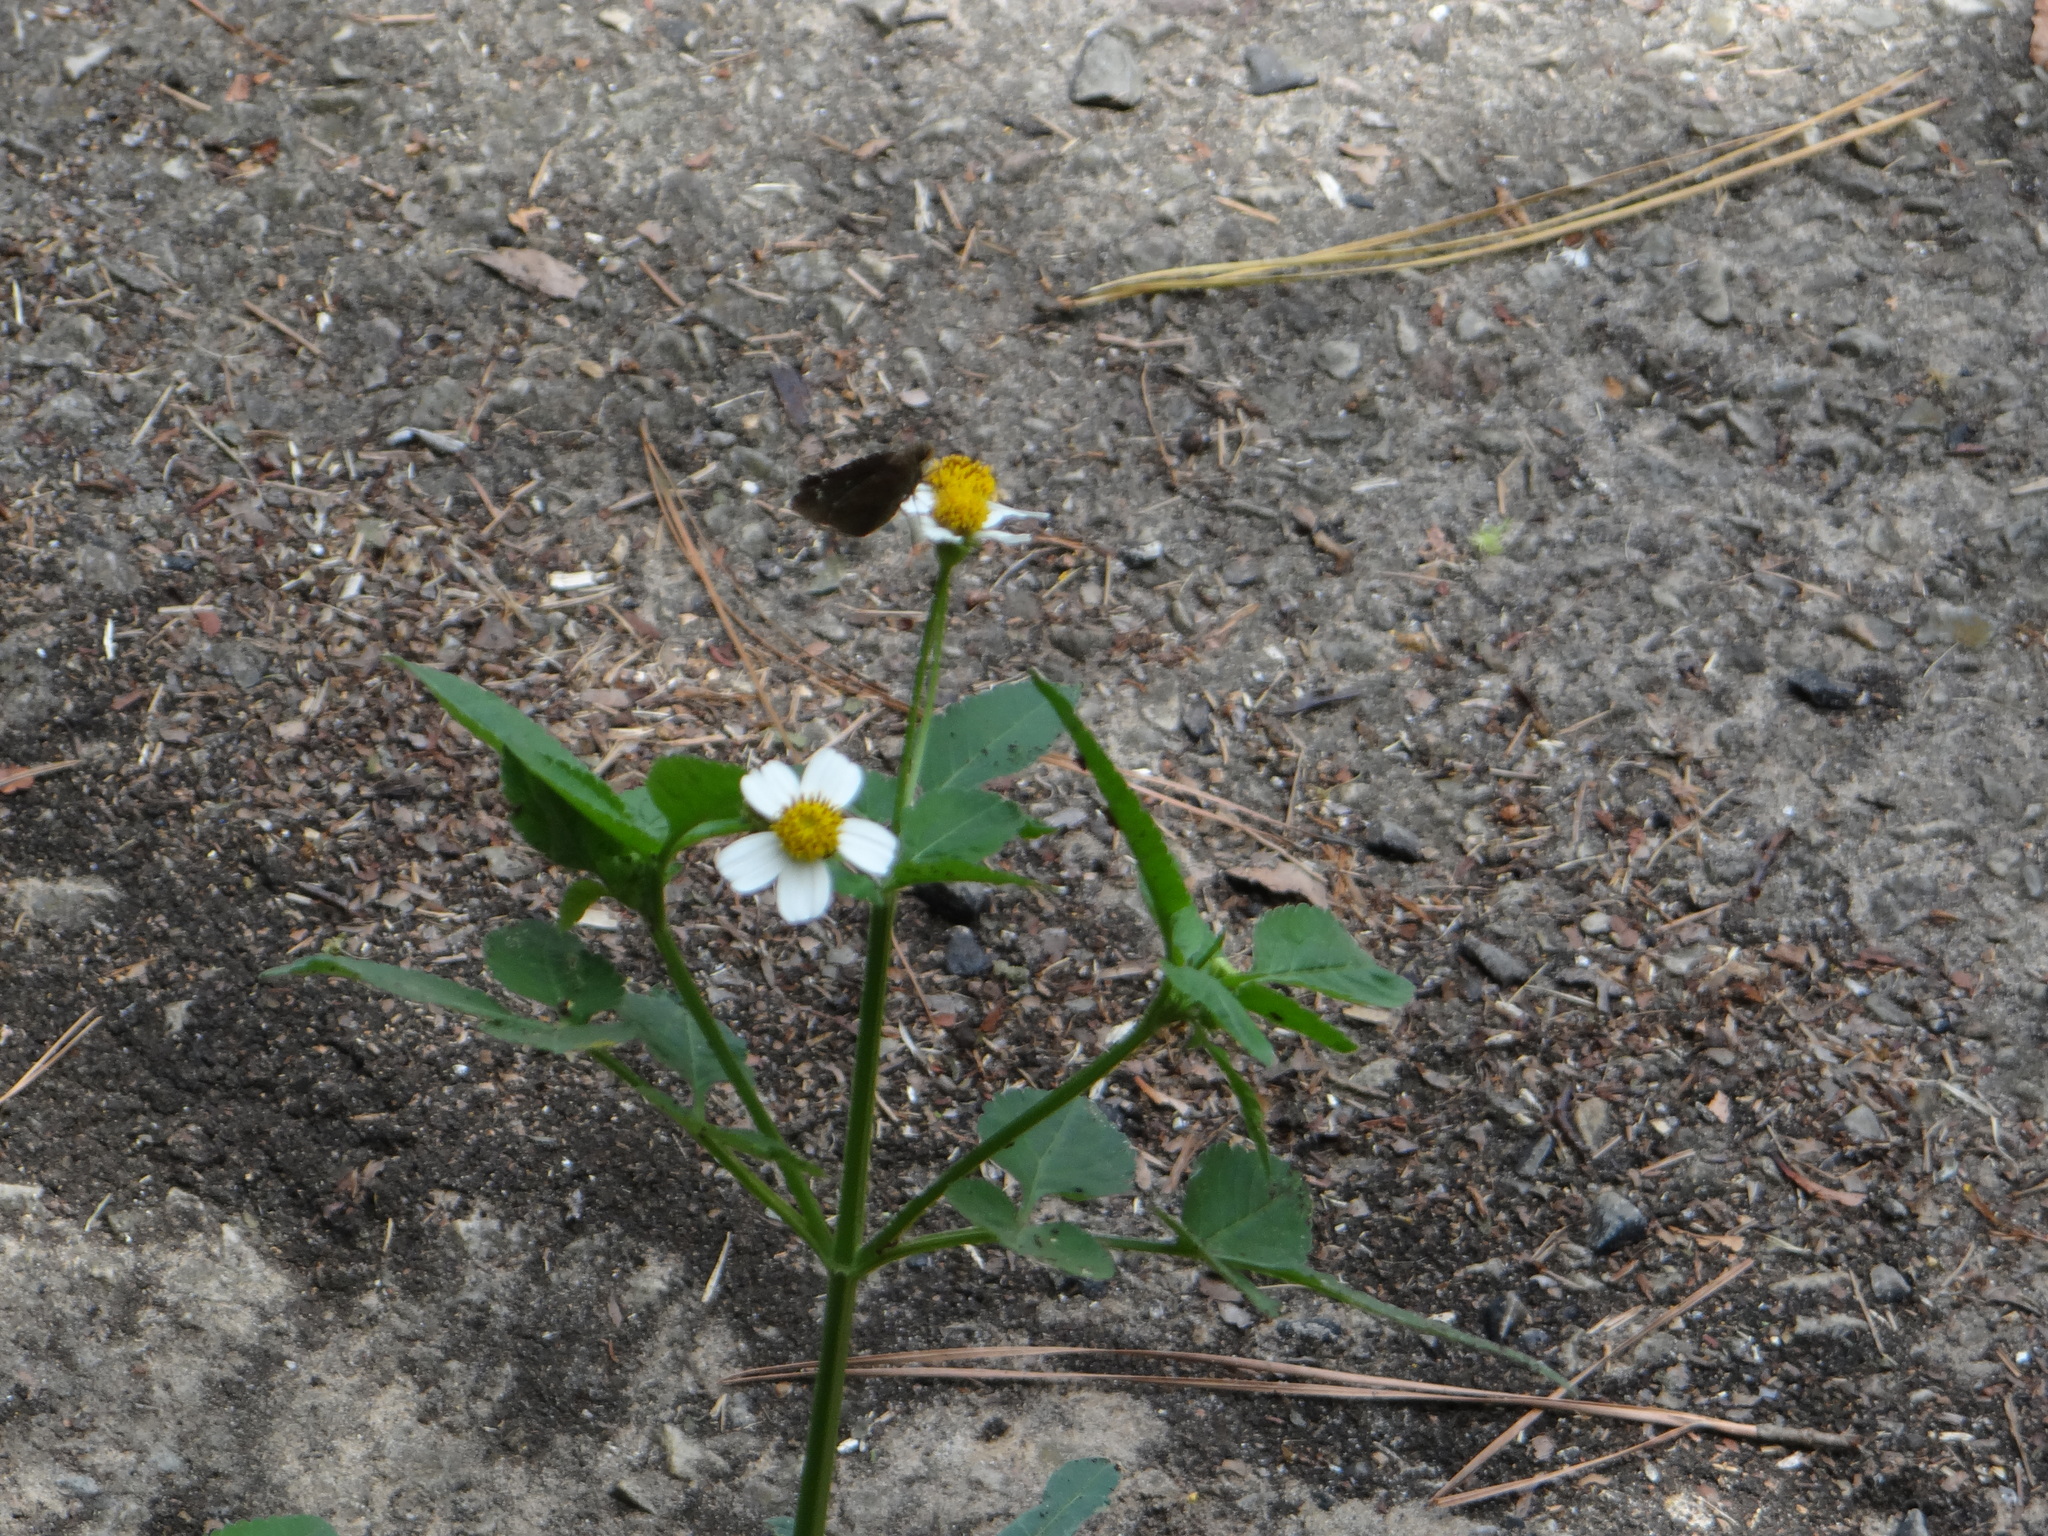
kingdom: Plantae
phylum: Tracheophyta
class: Magnoliopsida
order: Asterales
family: Asteraceae
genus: Bidens
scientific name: Bidens alba
